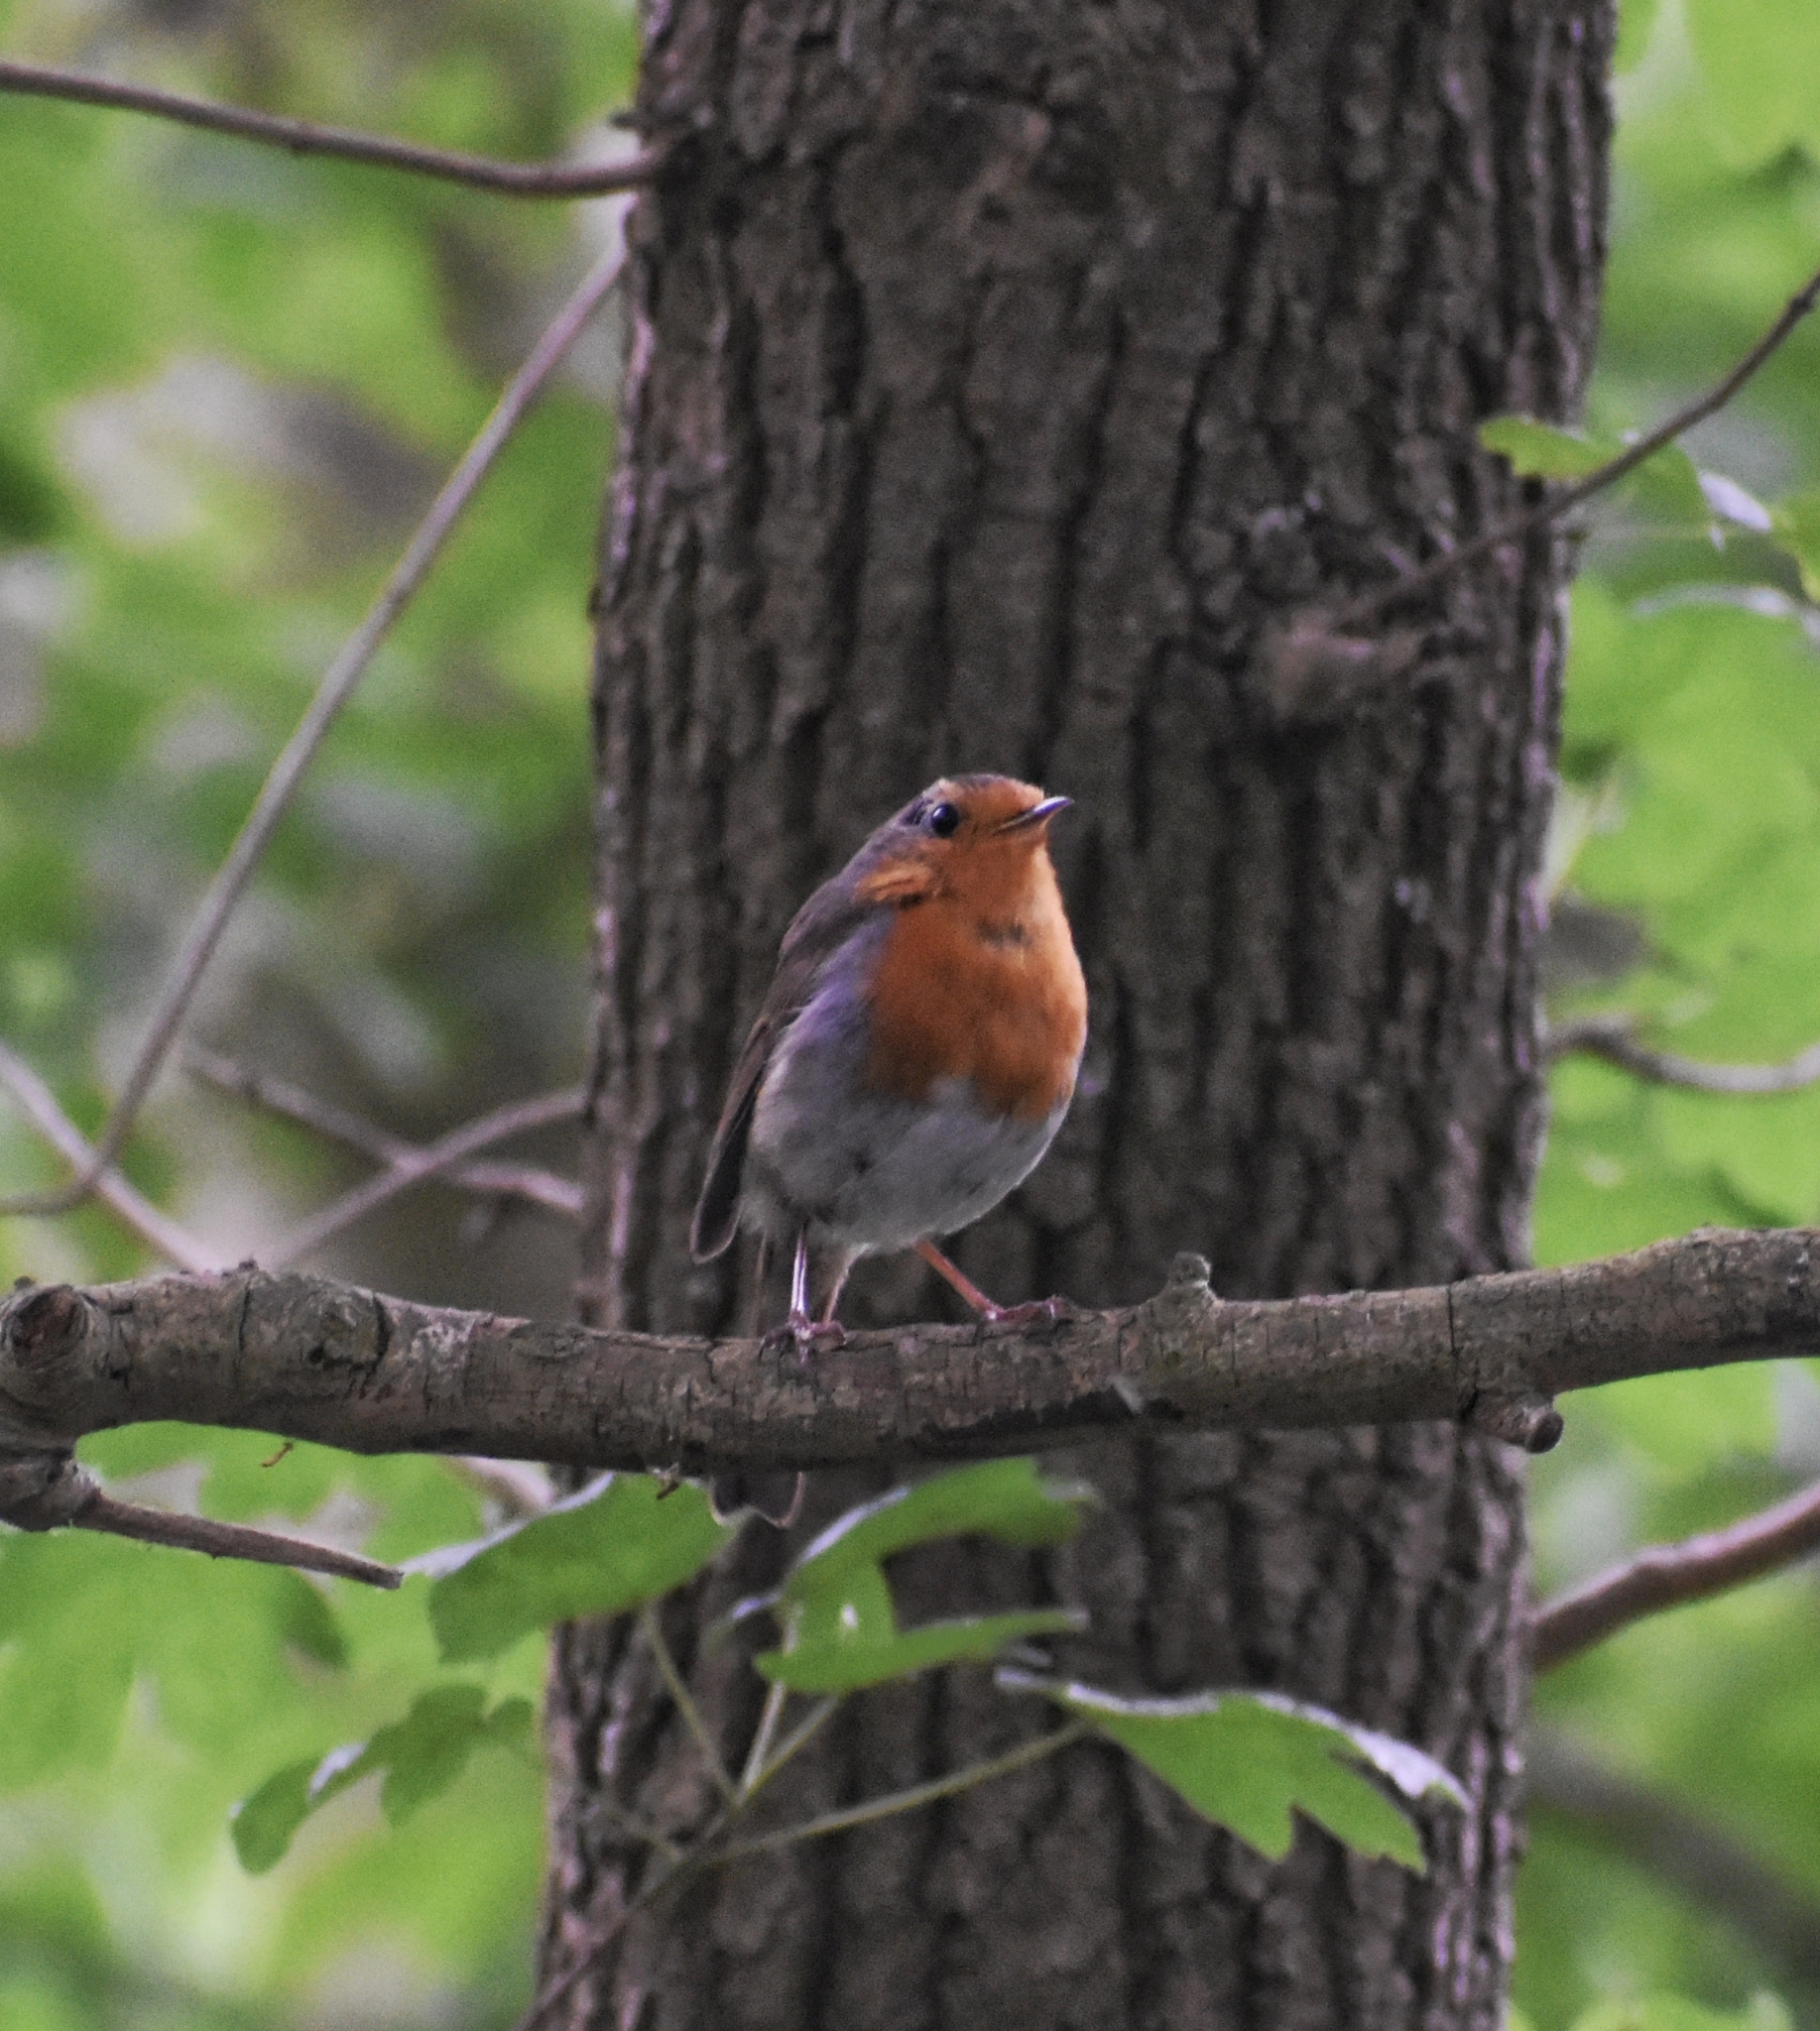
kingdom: Animalia
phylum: Chordata
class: Aves
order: Passeriformes
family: Muscicapidae
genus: Erithacus
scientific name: Erithacus rubecula
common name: European robin
